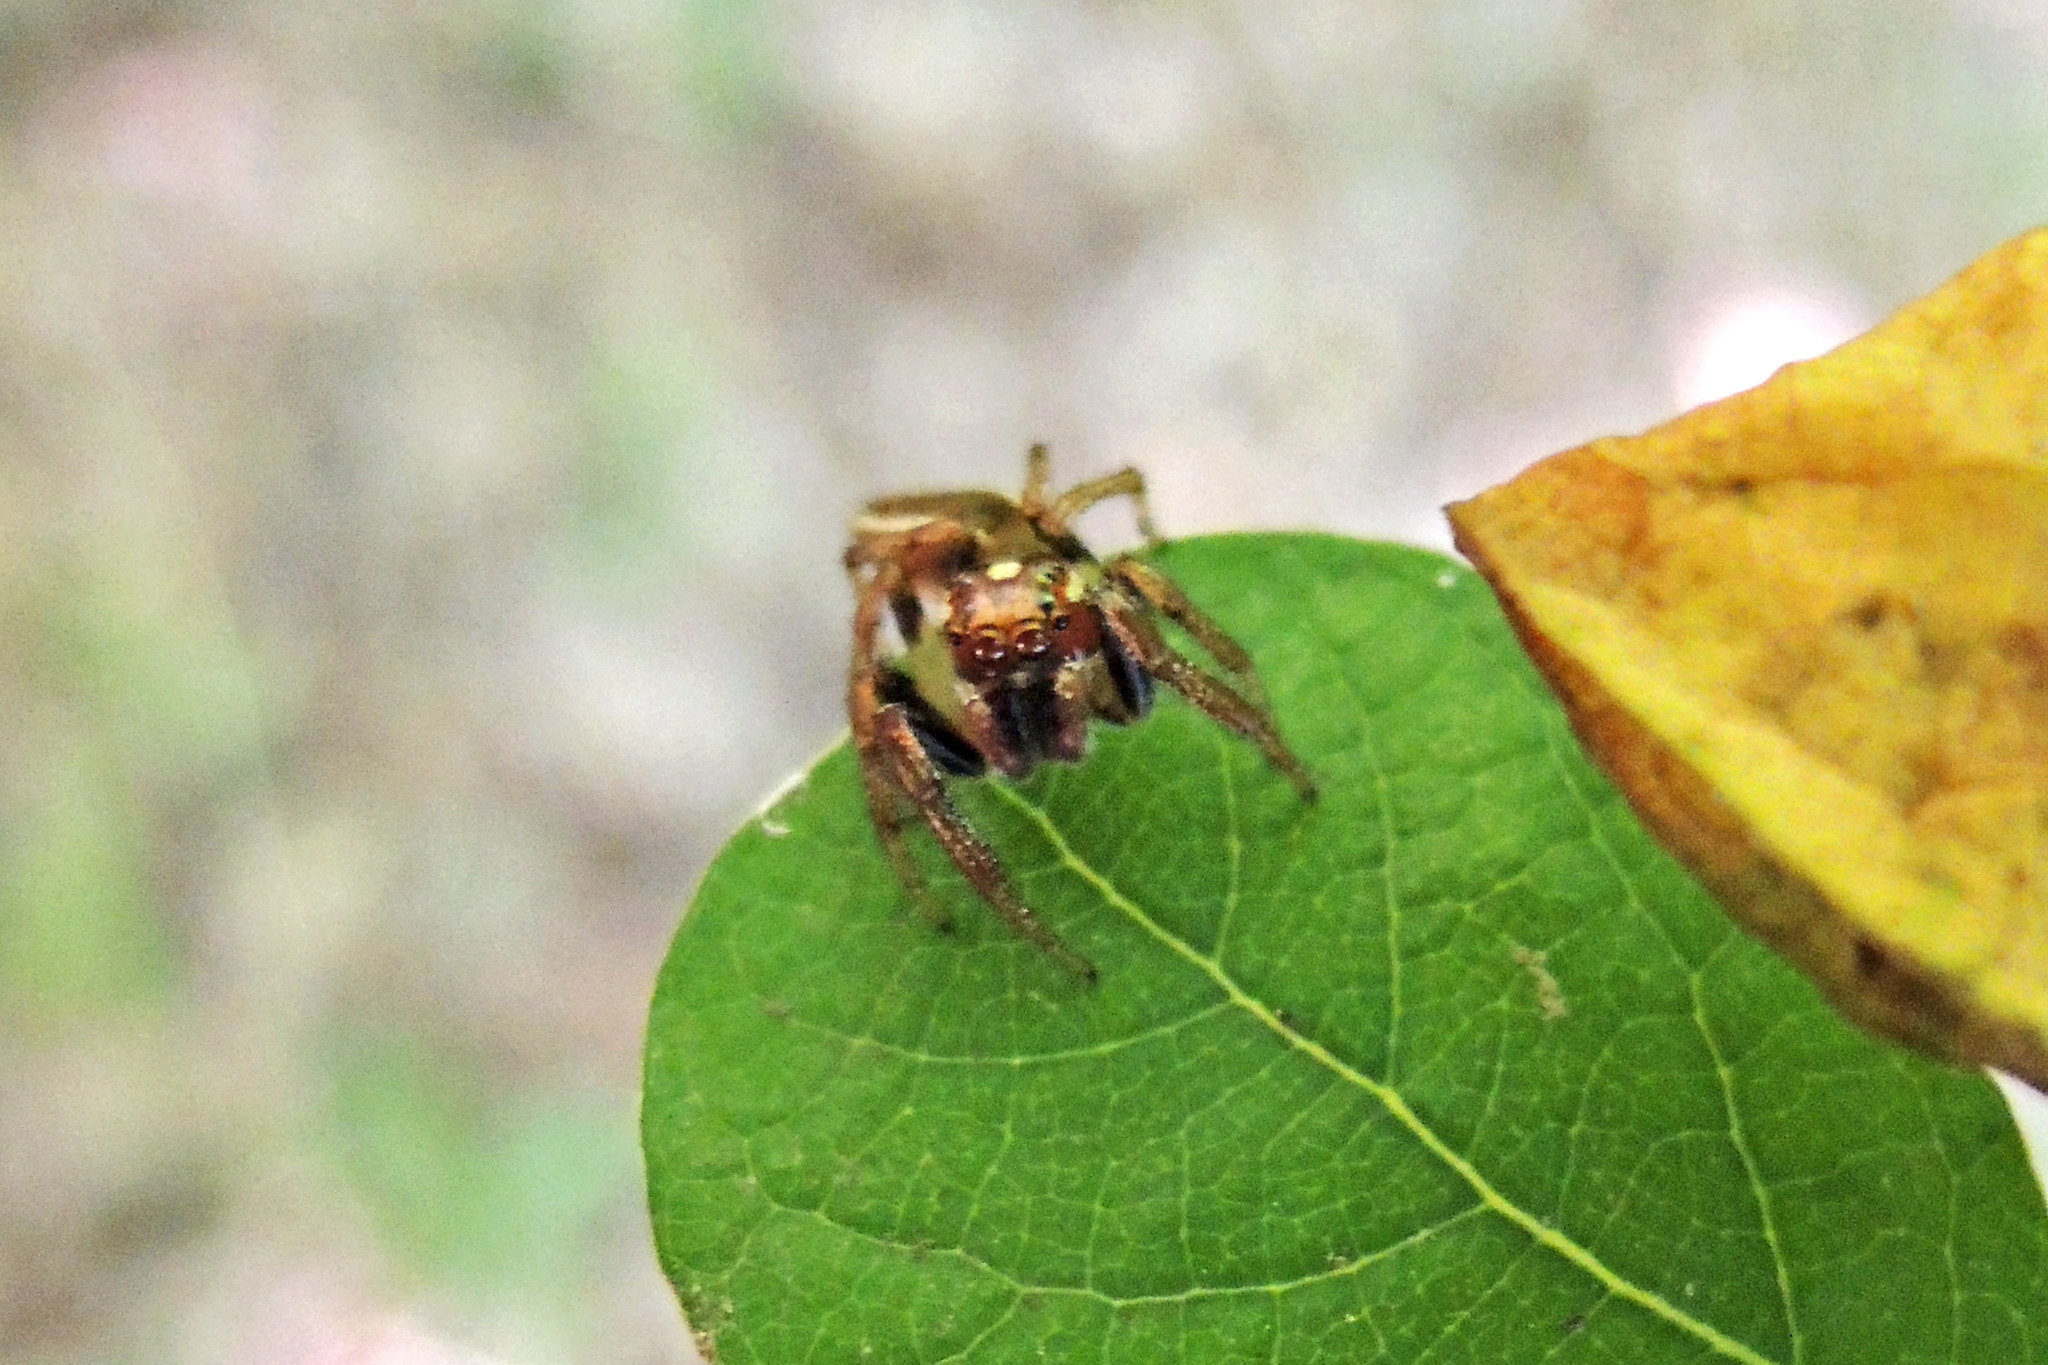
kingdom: Animalia
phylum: Arthropoda
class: Arachnida
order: Araneae
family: Salticidae
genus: Colonus
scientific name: Colonus sylvanus
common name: Jumping spiders
